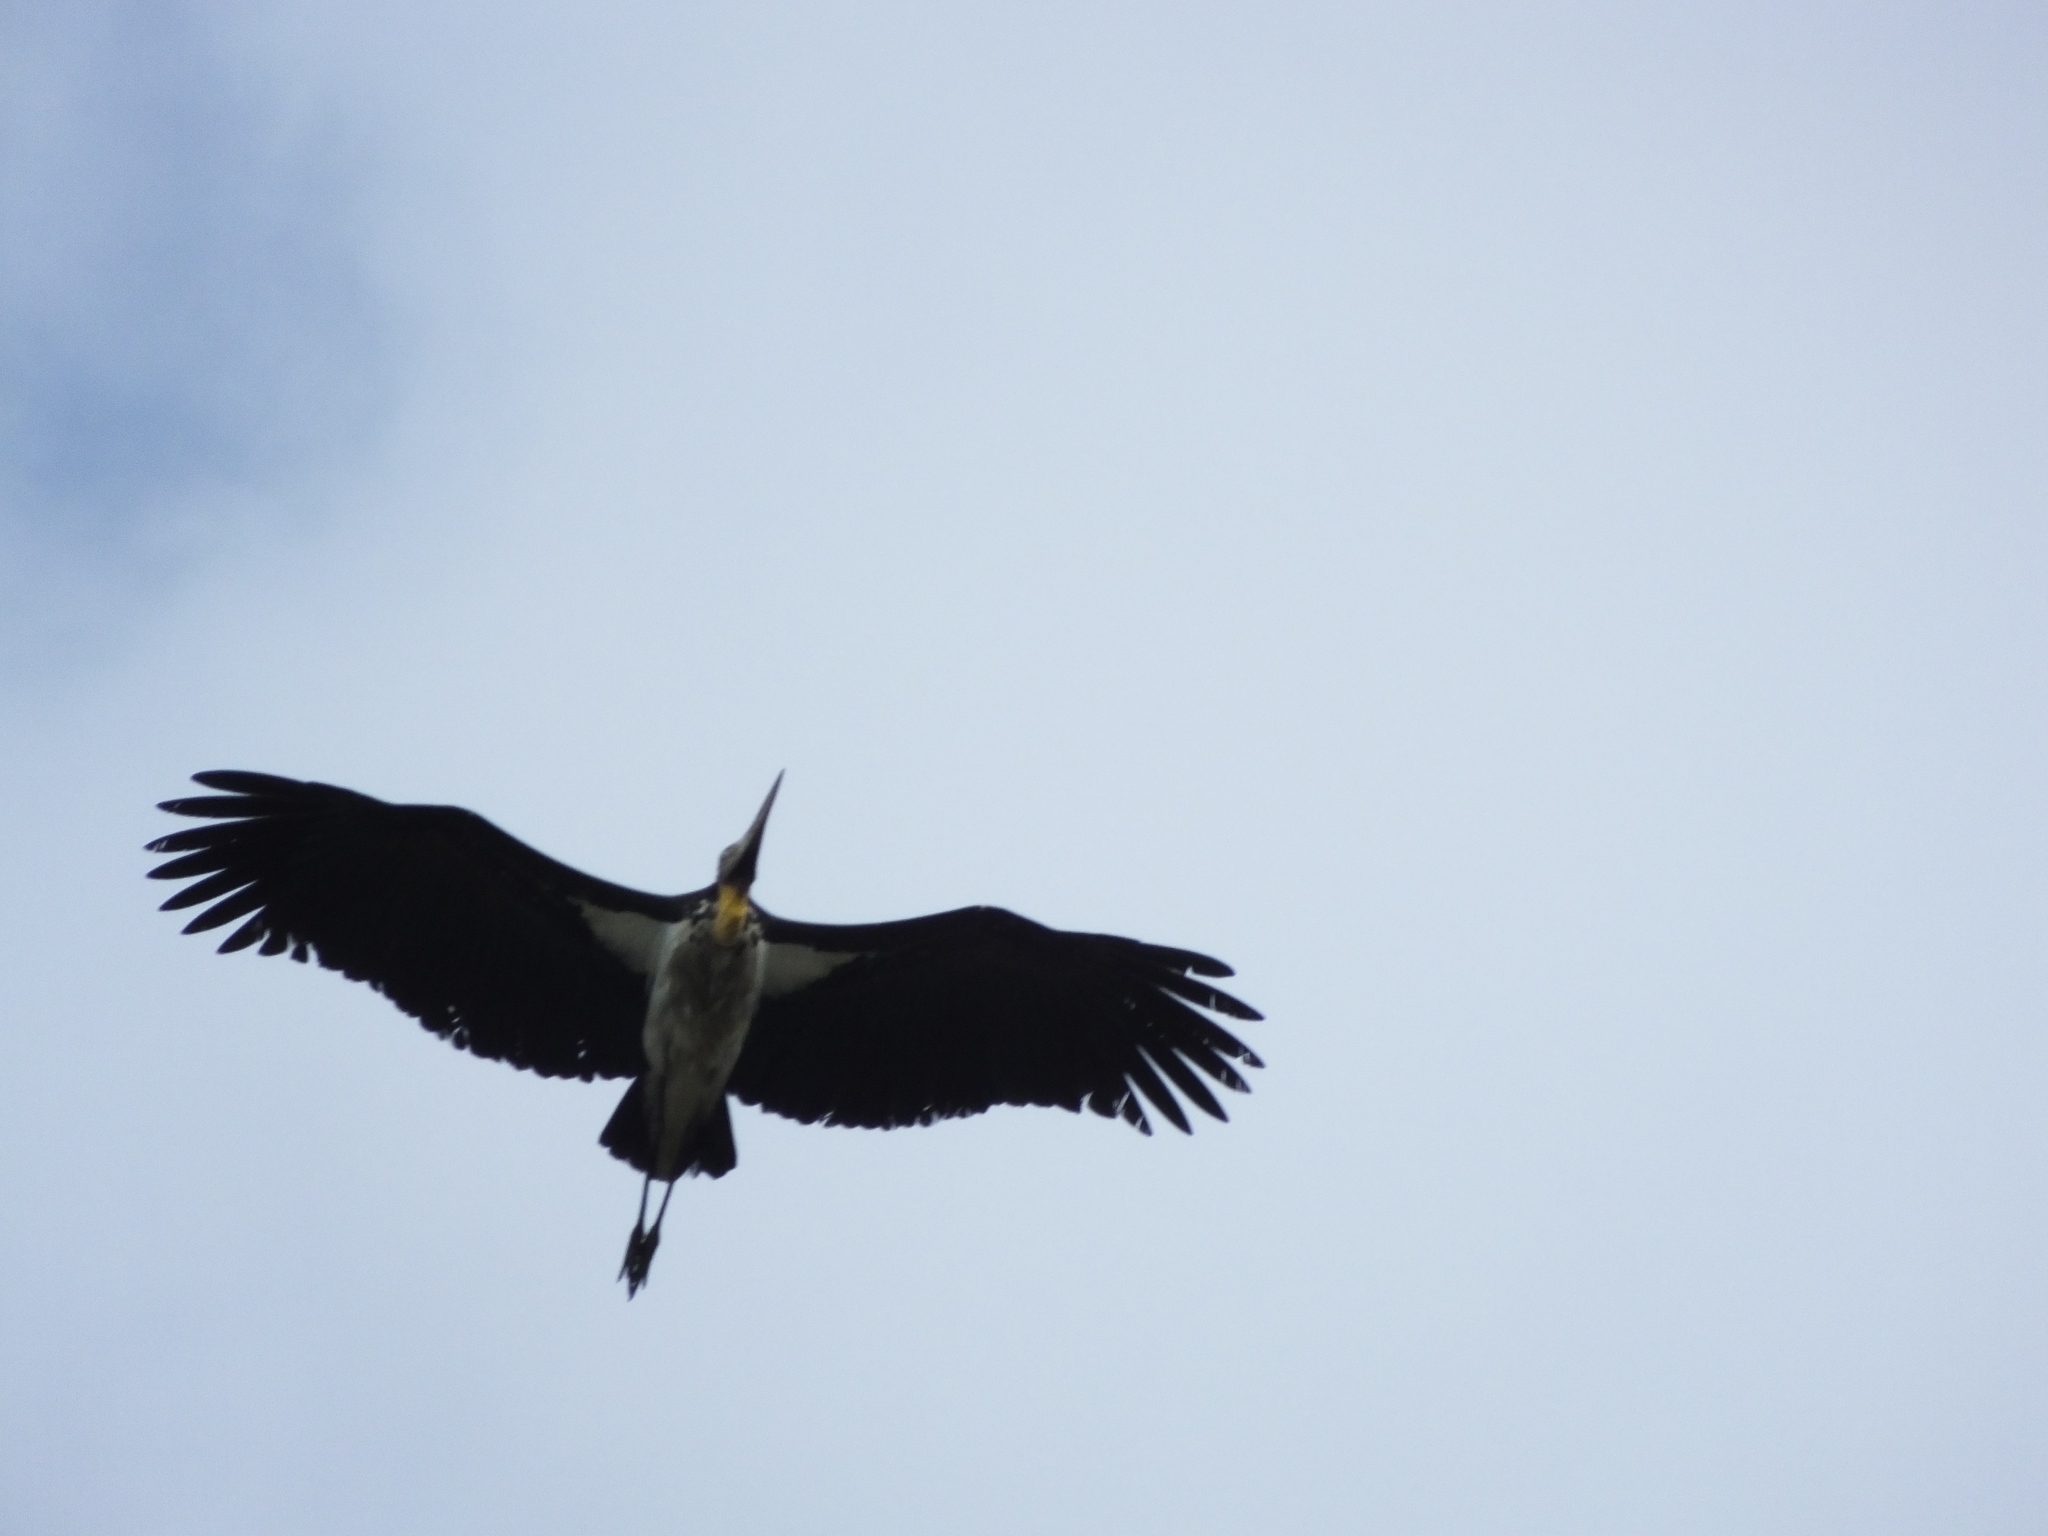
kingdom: Animalia
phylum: Chordata
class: Aves
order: Ciconiiformes
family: Ciconiidae
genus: Leptoptilos
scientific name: Leptoptilos javanicus
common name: Lesser adjutant
